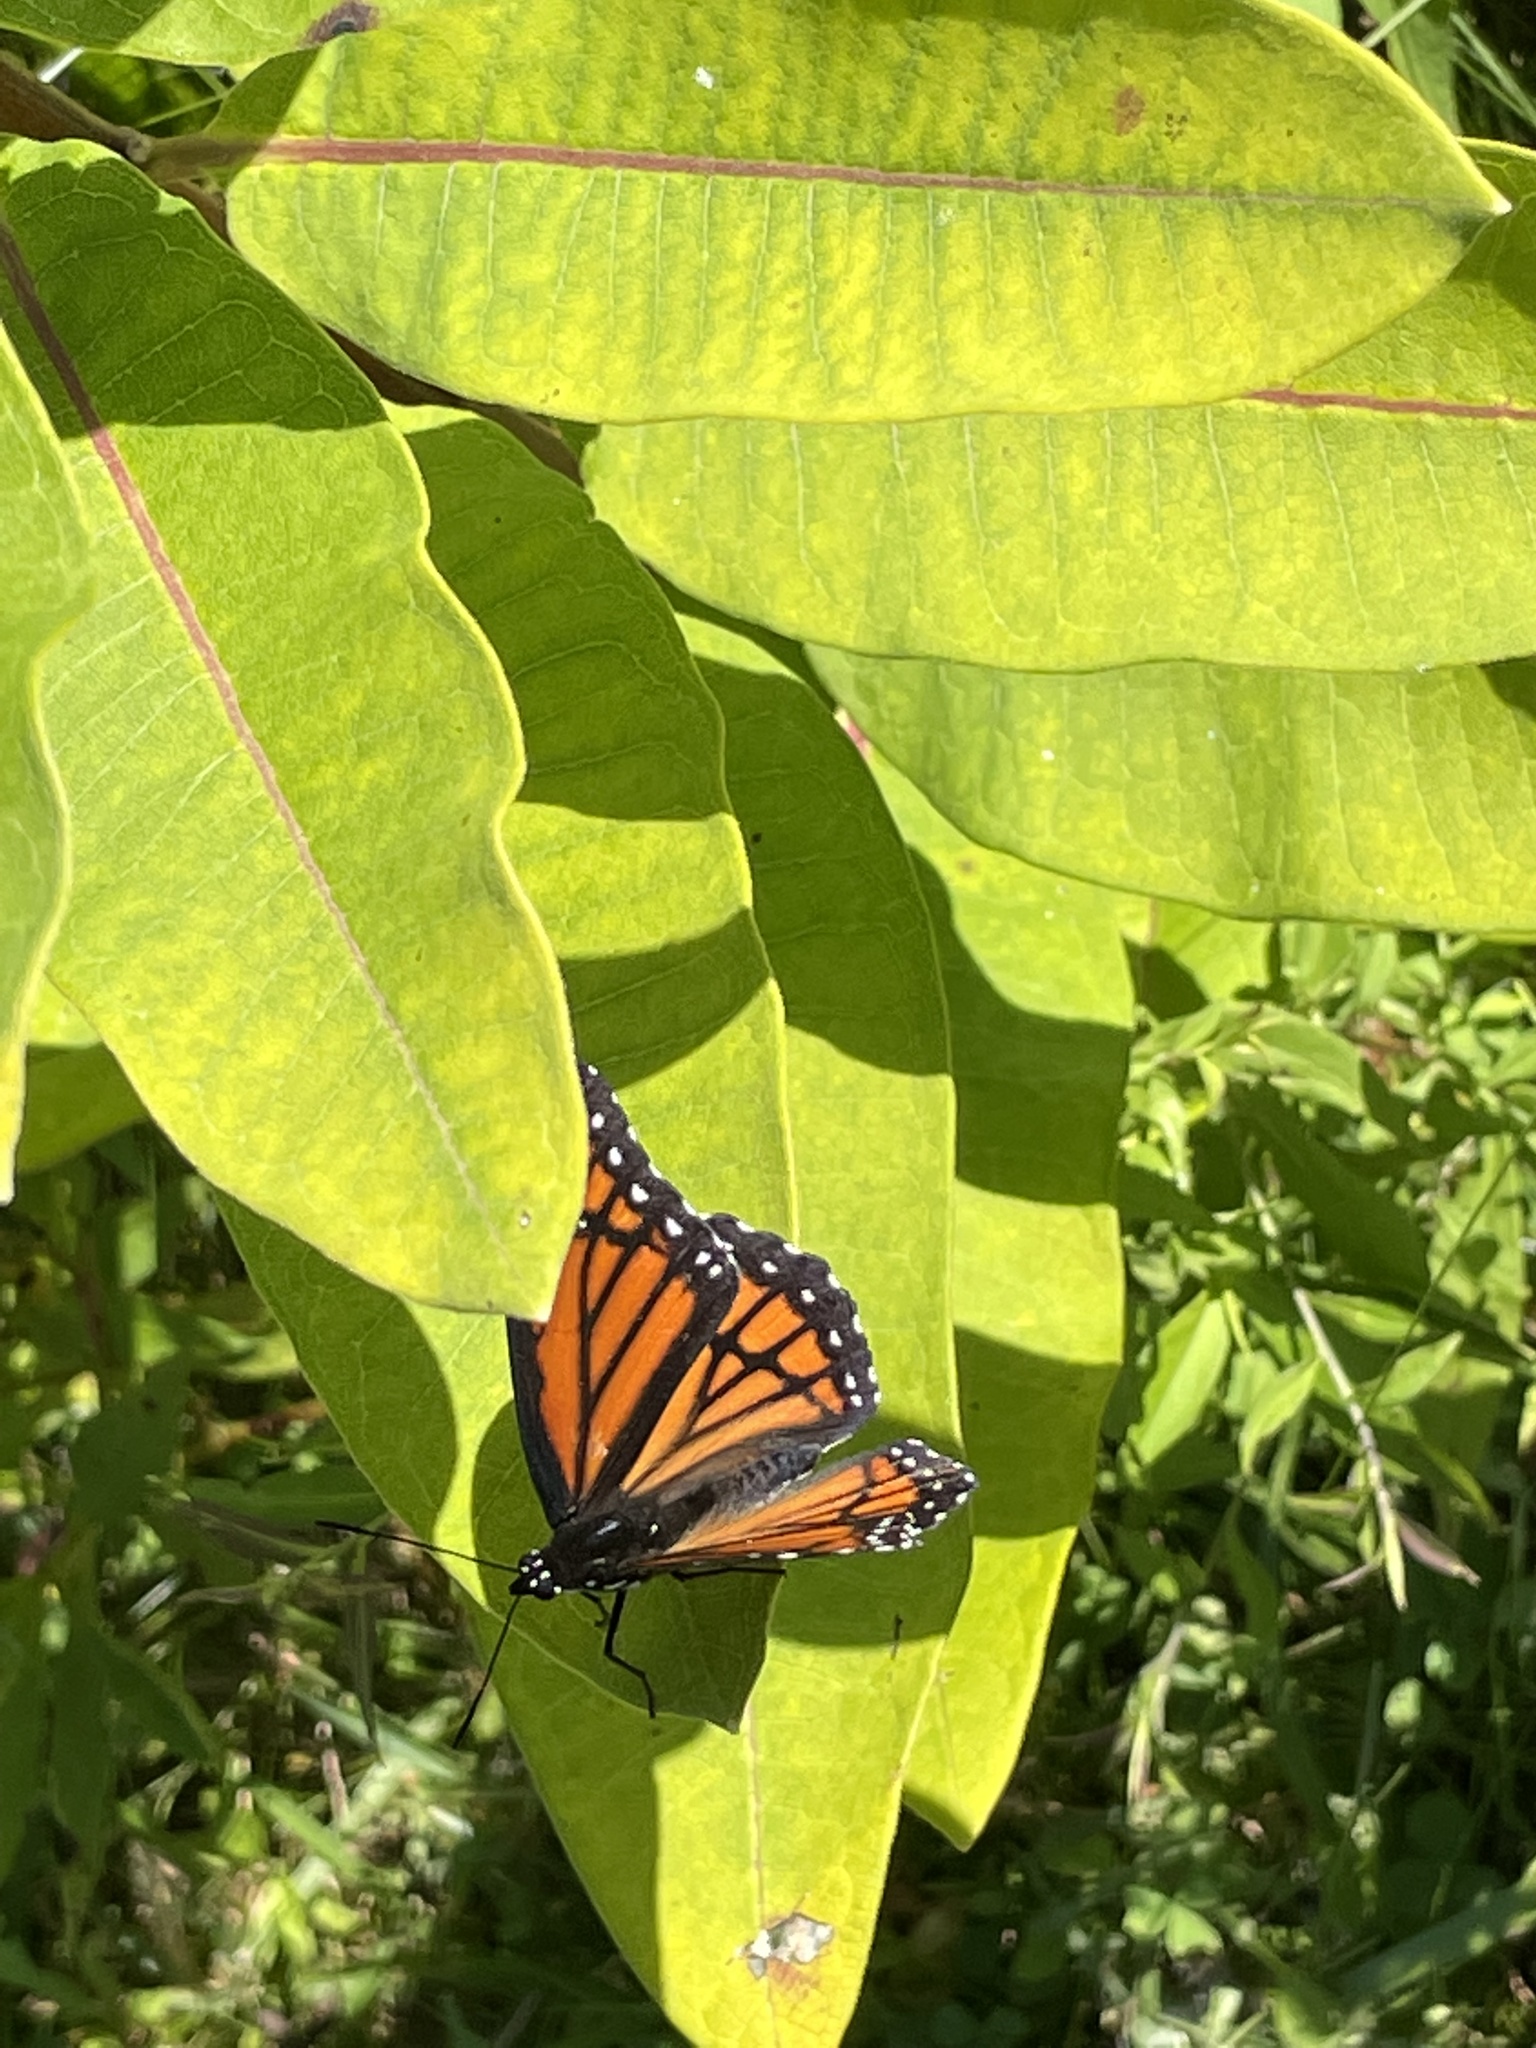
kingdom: Animalia
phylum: Arthropoda
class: Insecta
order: Lepidoptera
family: Nymphalidae
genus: Limenitis
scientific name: Limenitis archippus
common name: Viceroy
